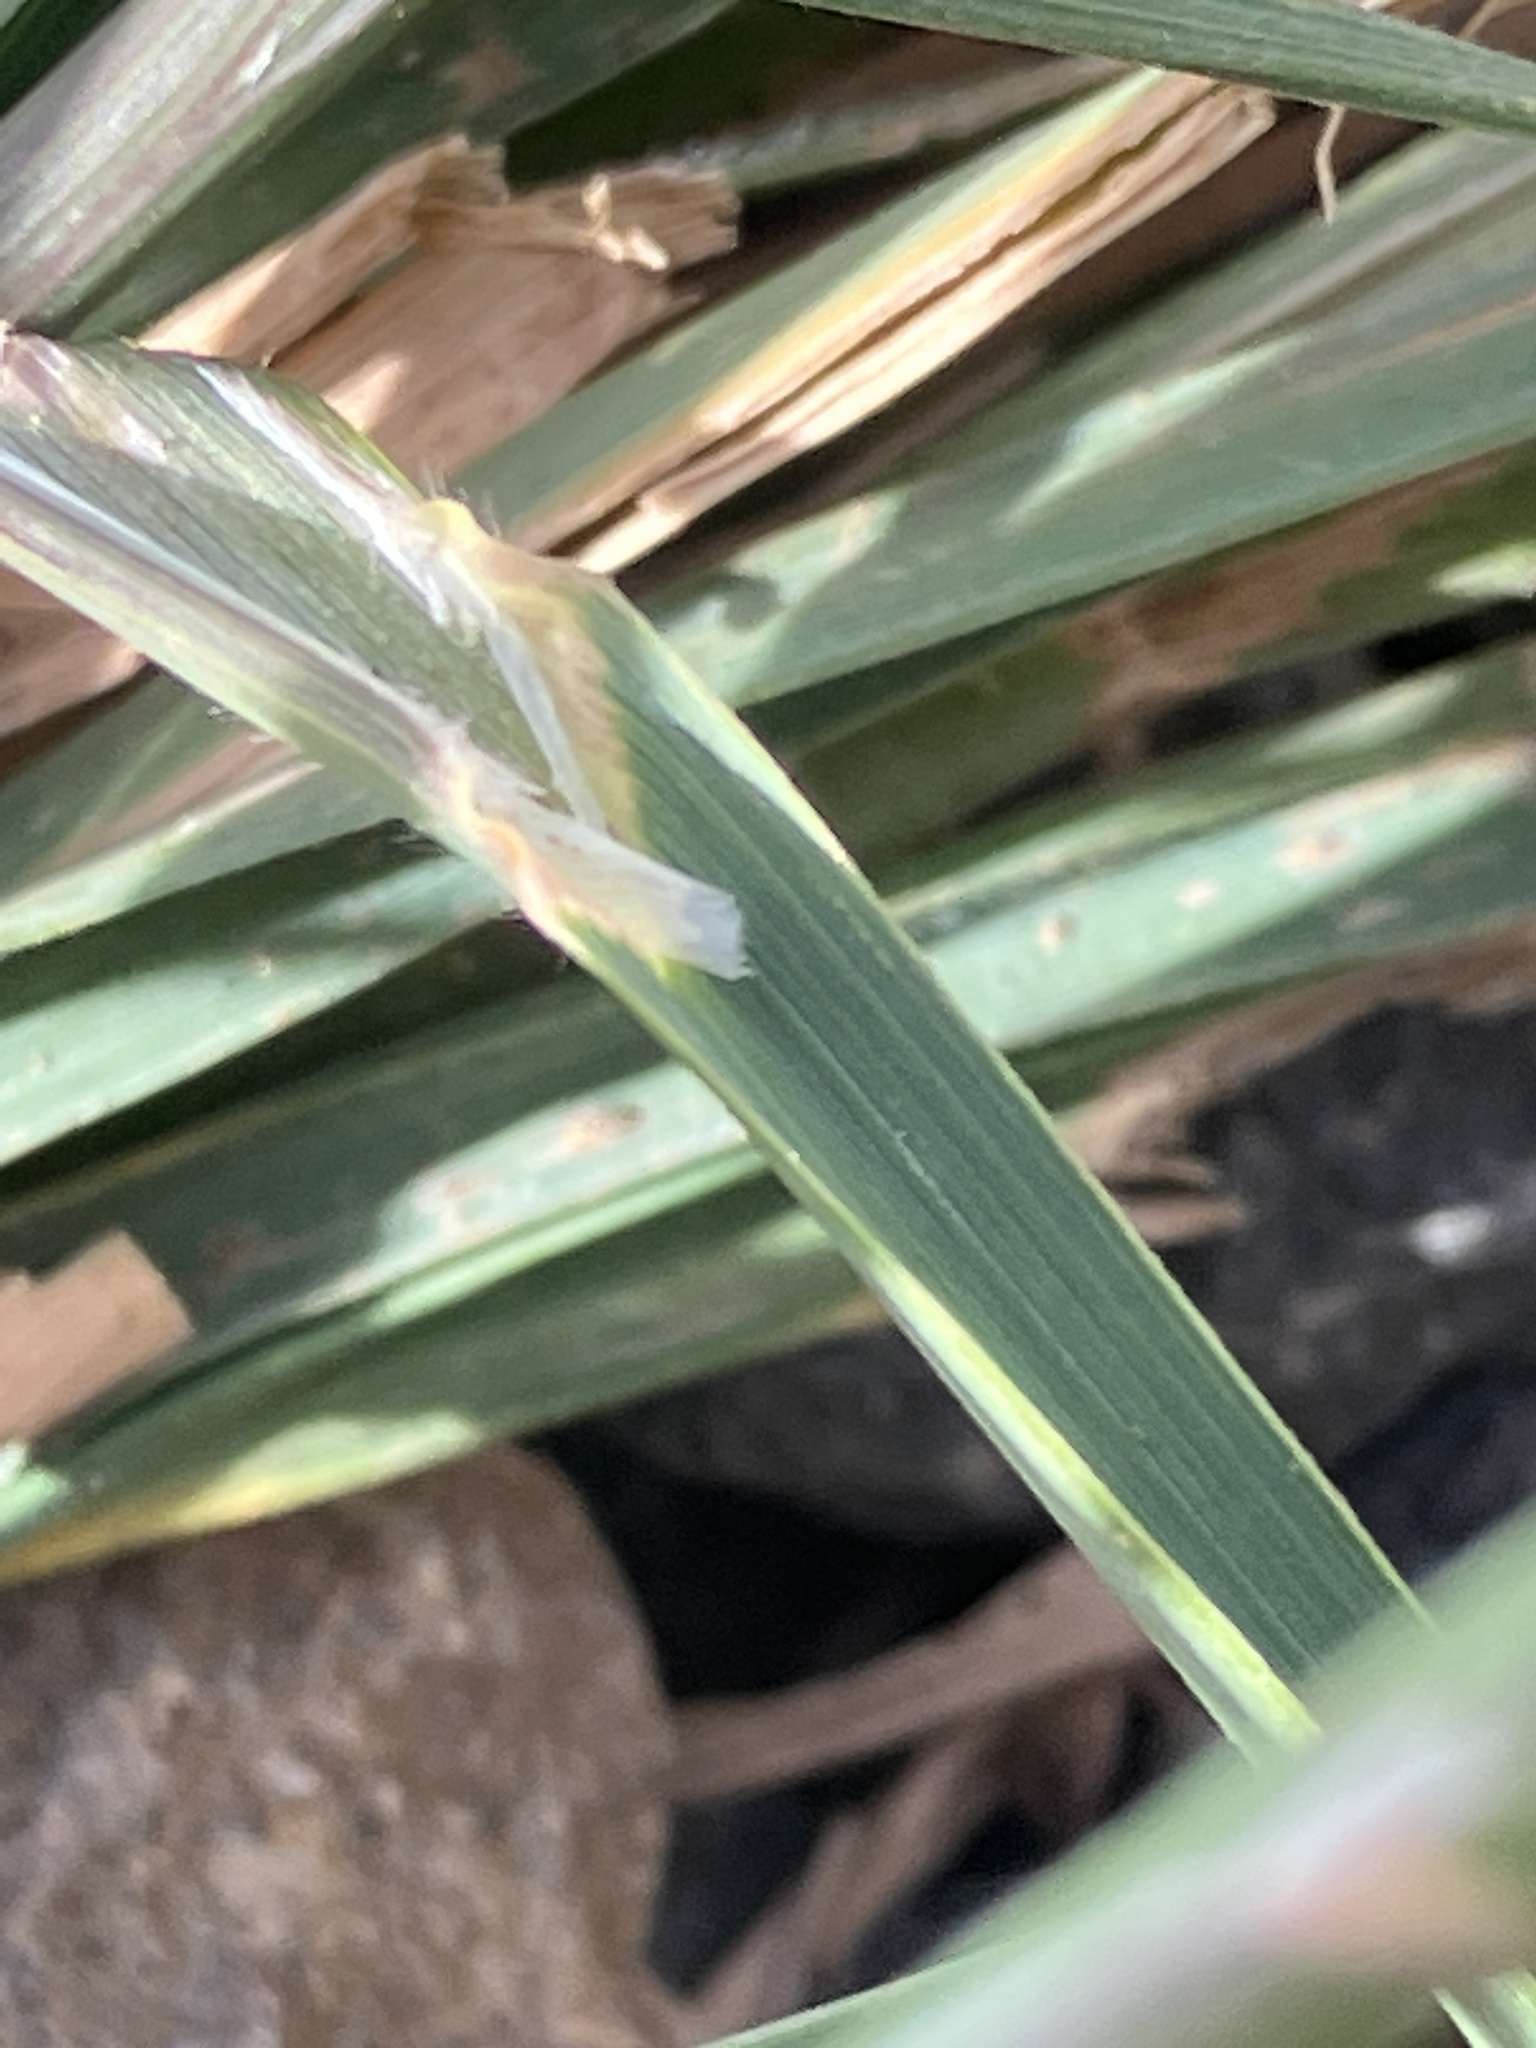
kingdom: Plantae
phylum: Tracheophyta
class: Liliopsida
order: Poales
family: Poaceae
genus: Bromus
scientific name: Bromus catharticus
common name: Rescuegrass
